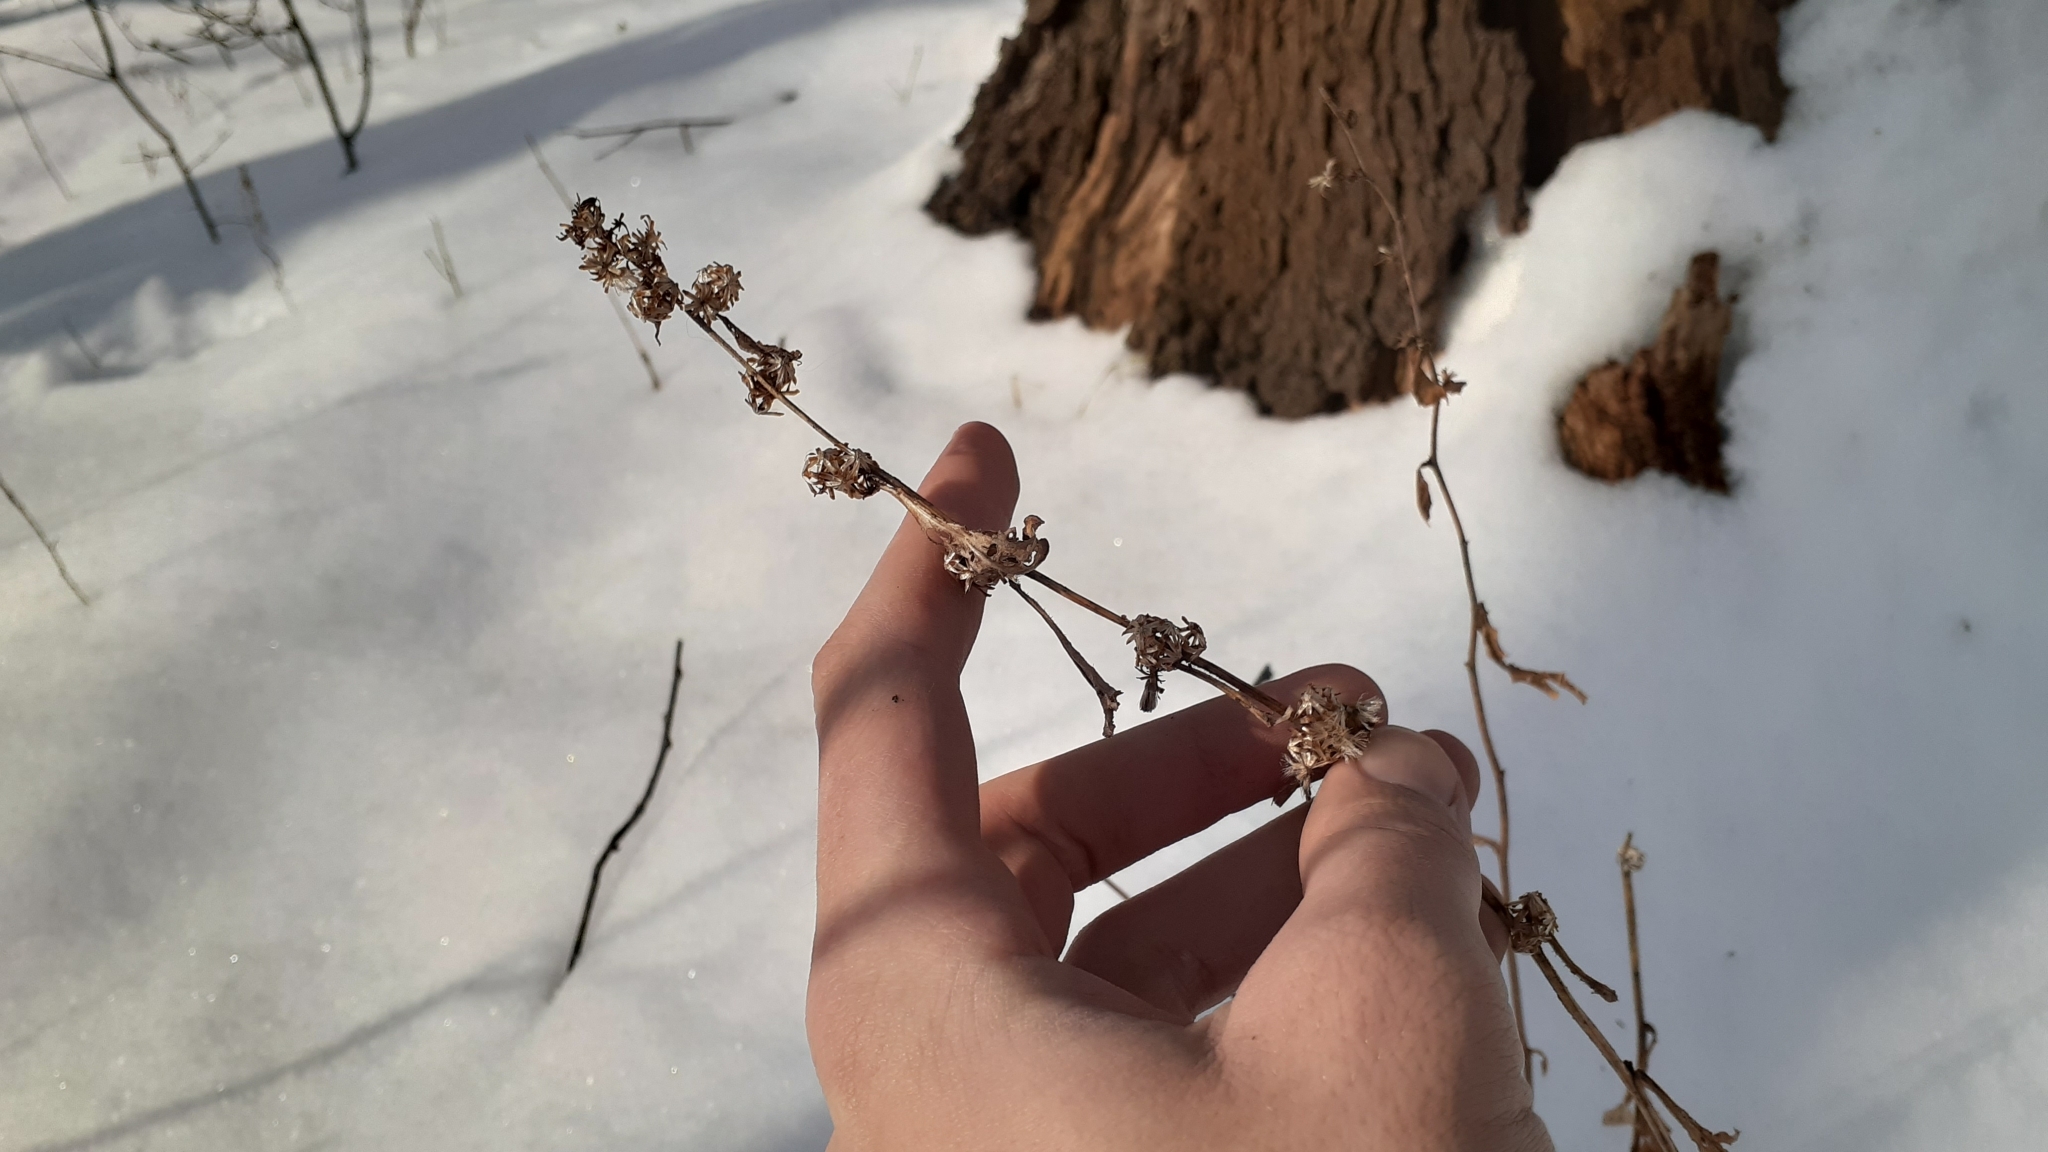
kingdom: Plantae
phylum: Tracheophyta
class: Magnoliopsida
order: Asterales
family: Asteraceae
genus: Solidago
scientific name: Solidago caesia
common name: Woodland goldenrod
